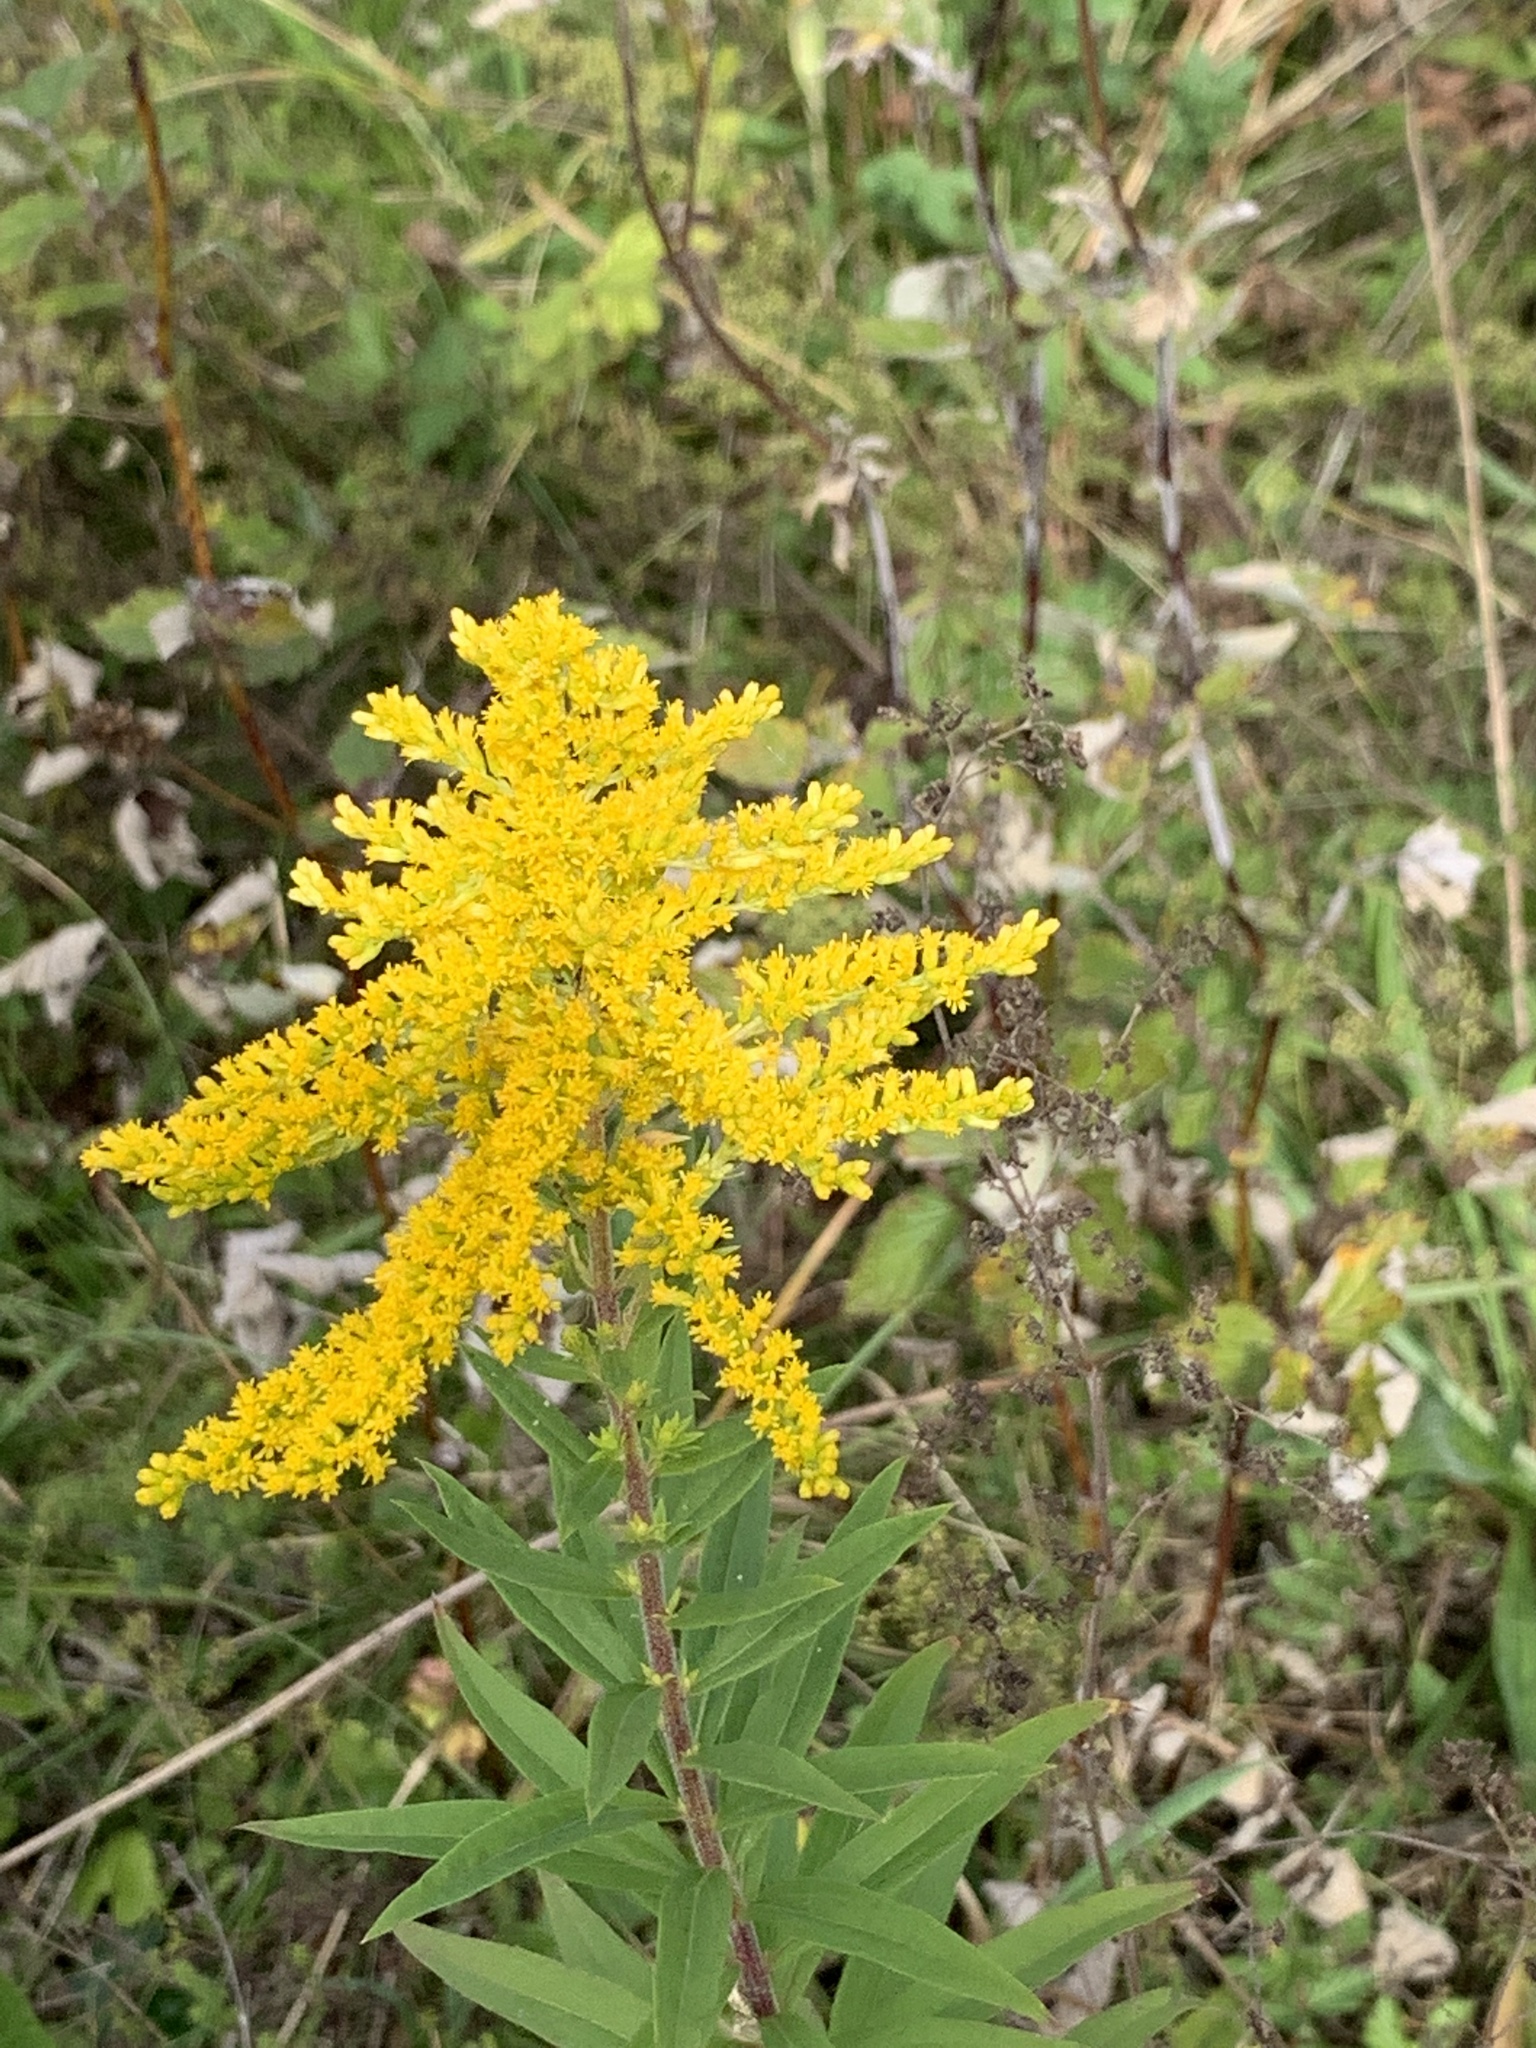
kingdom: Plantae
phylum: Tracheophyta
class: Magnoliopsida
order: Asterales
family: Asteraceae
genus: Solidago
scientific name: Solidago canadensis
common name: Canada goldenrod
